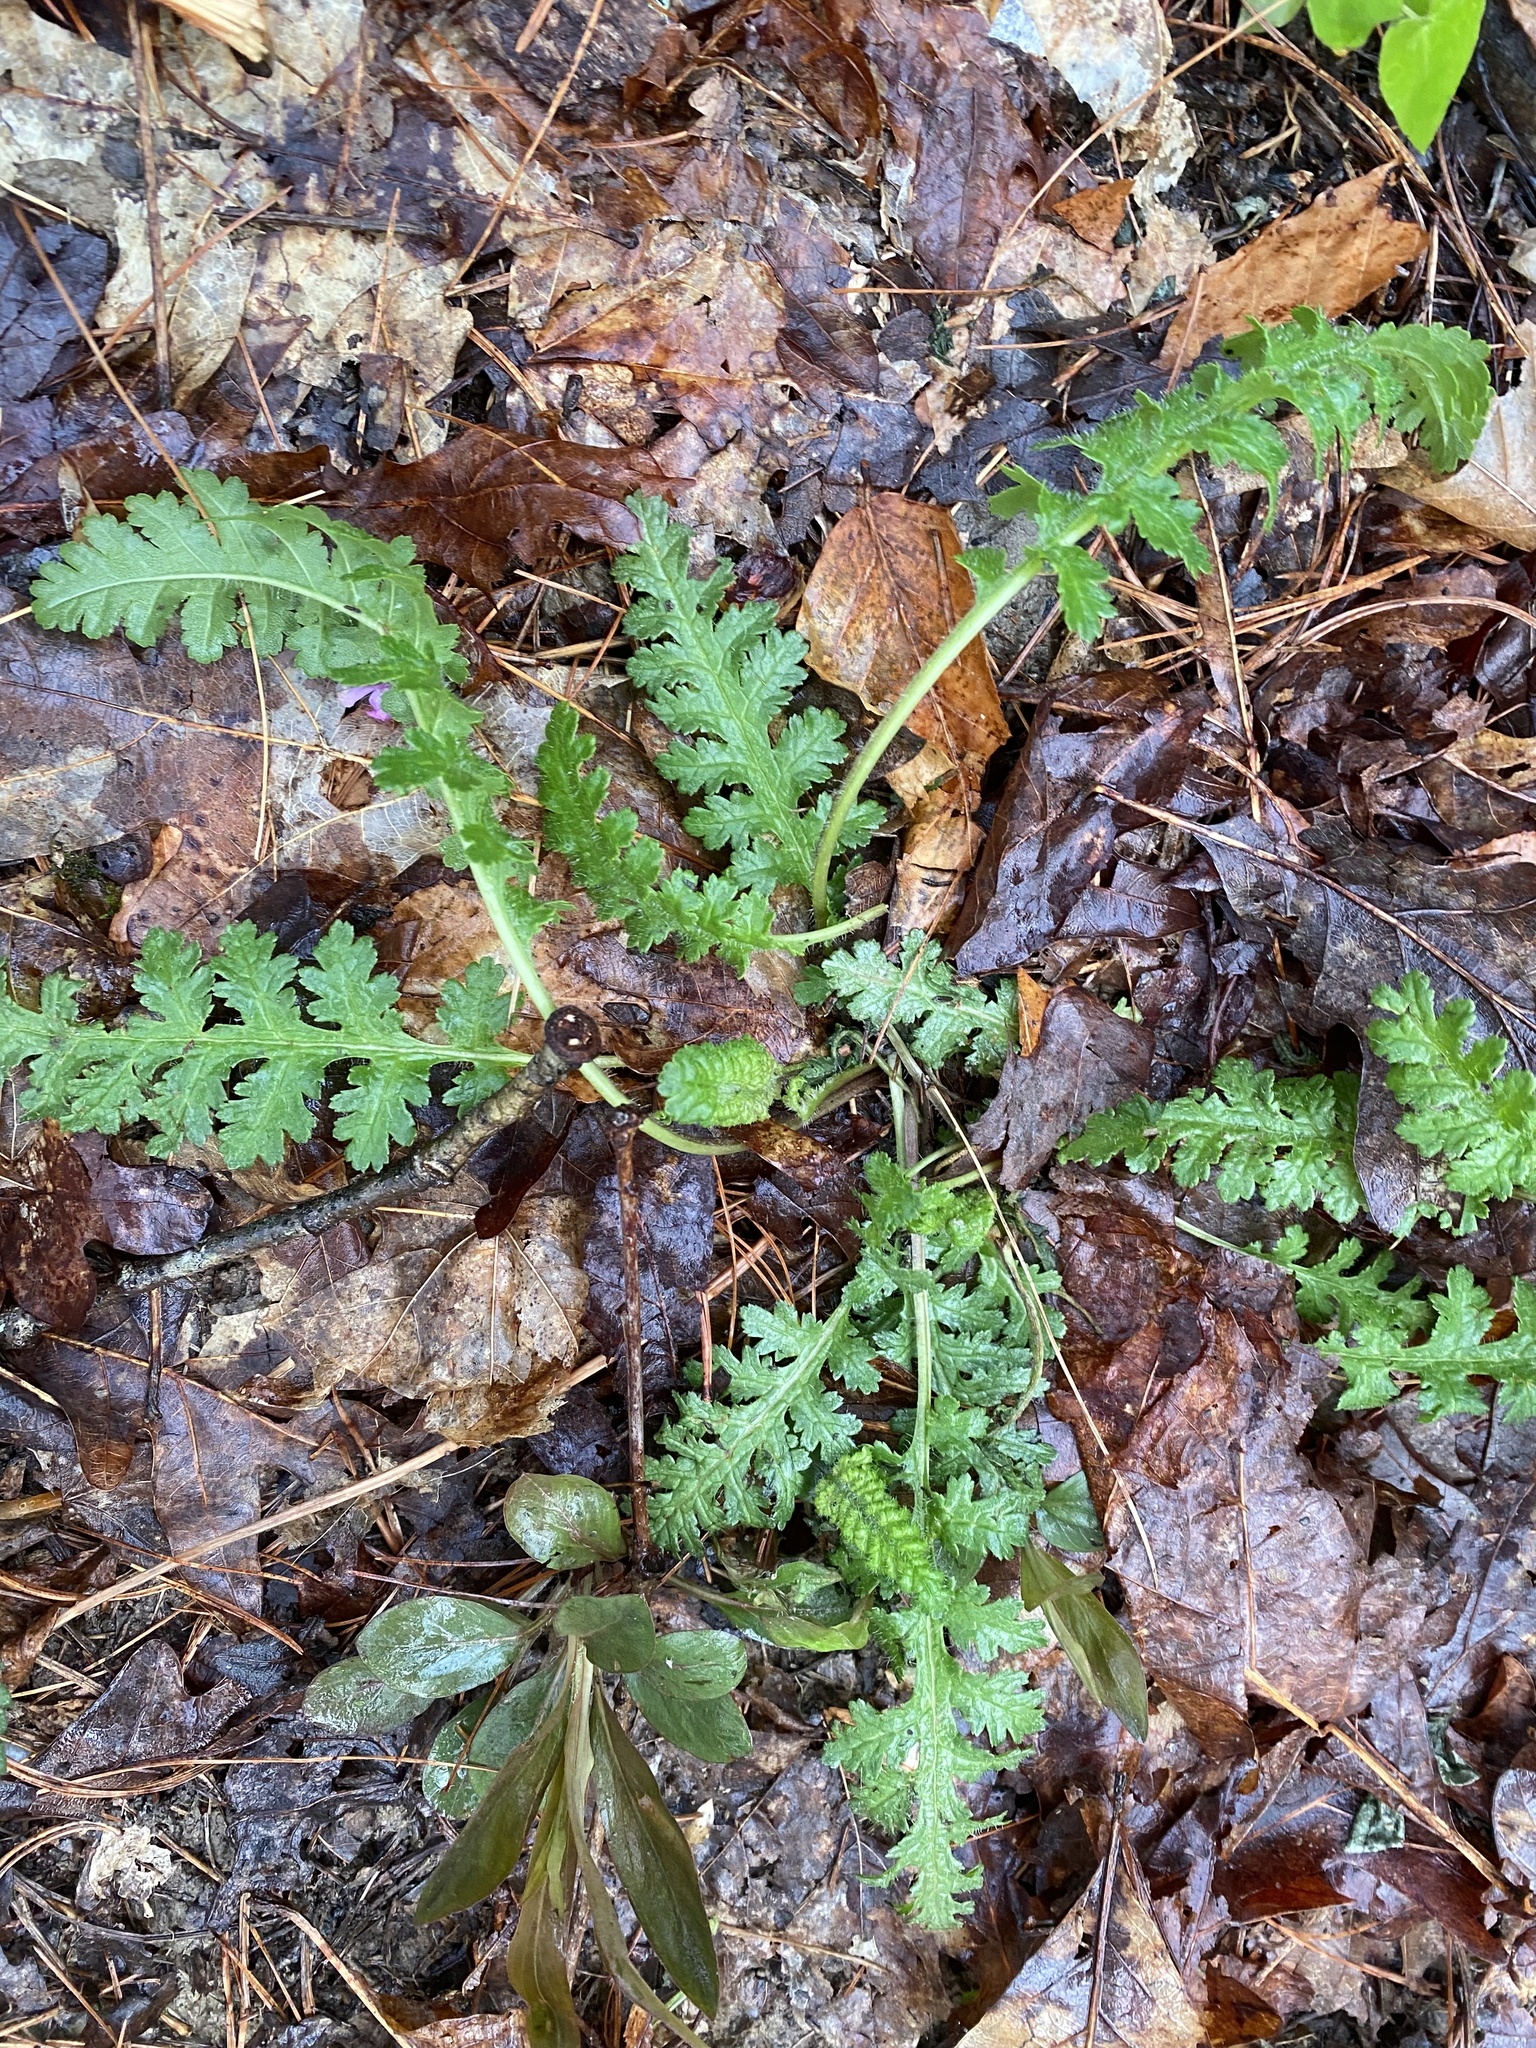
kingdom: Plantae
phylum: Tracheophyta
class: Magnoliopsida
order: Lamiales
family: Orobanchaceae
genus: Pedicularis
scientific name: Pedicularis canadensis
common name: Early lousewort
